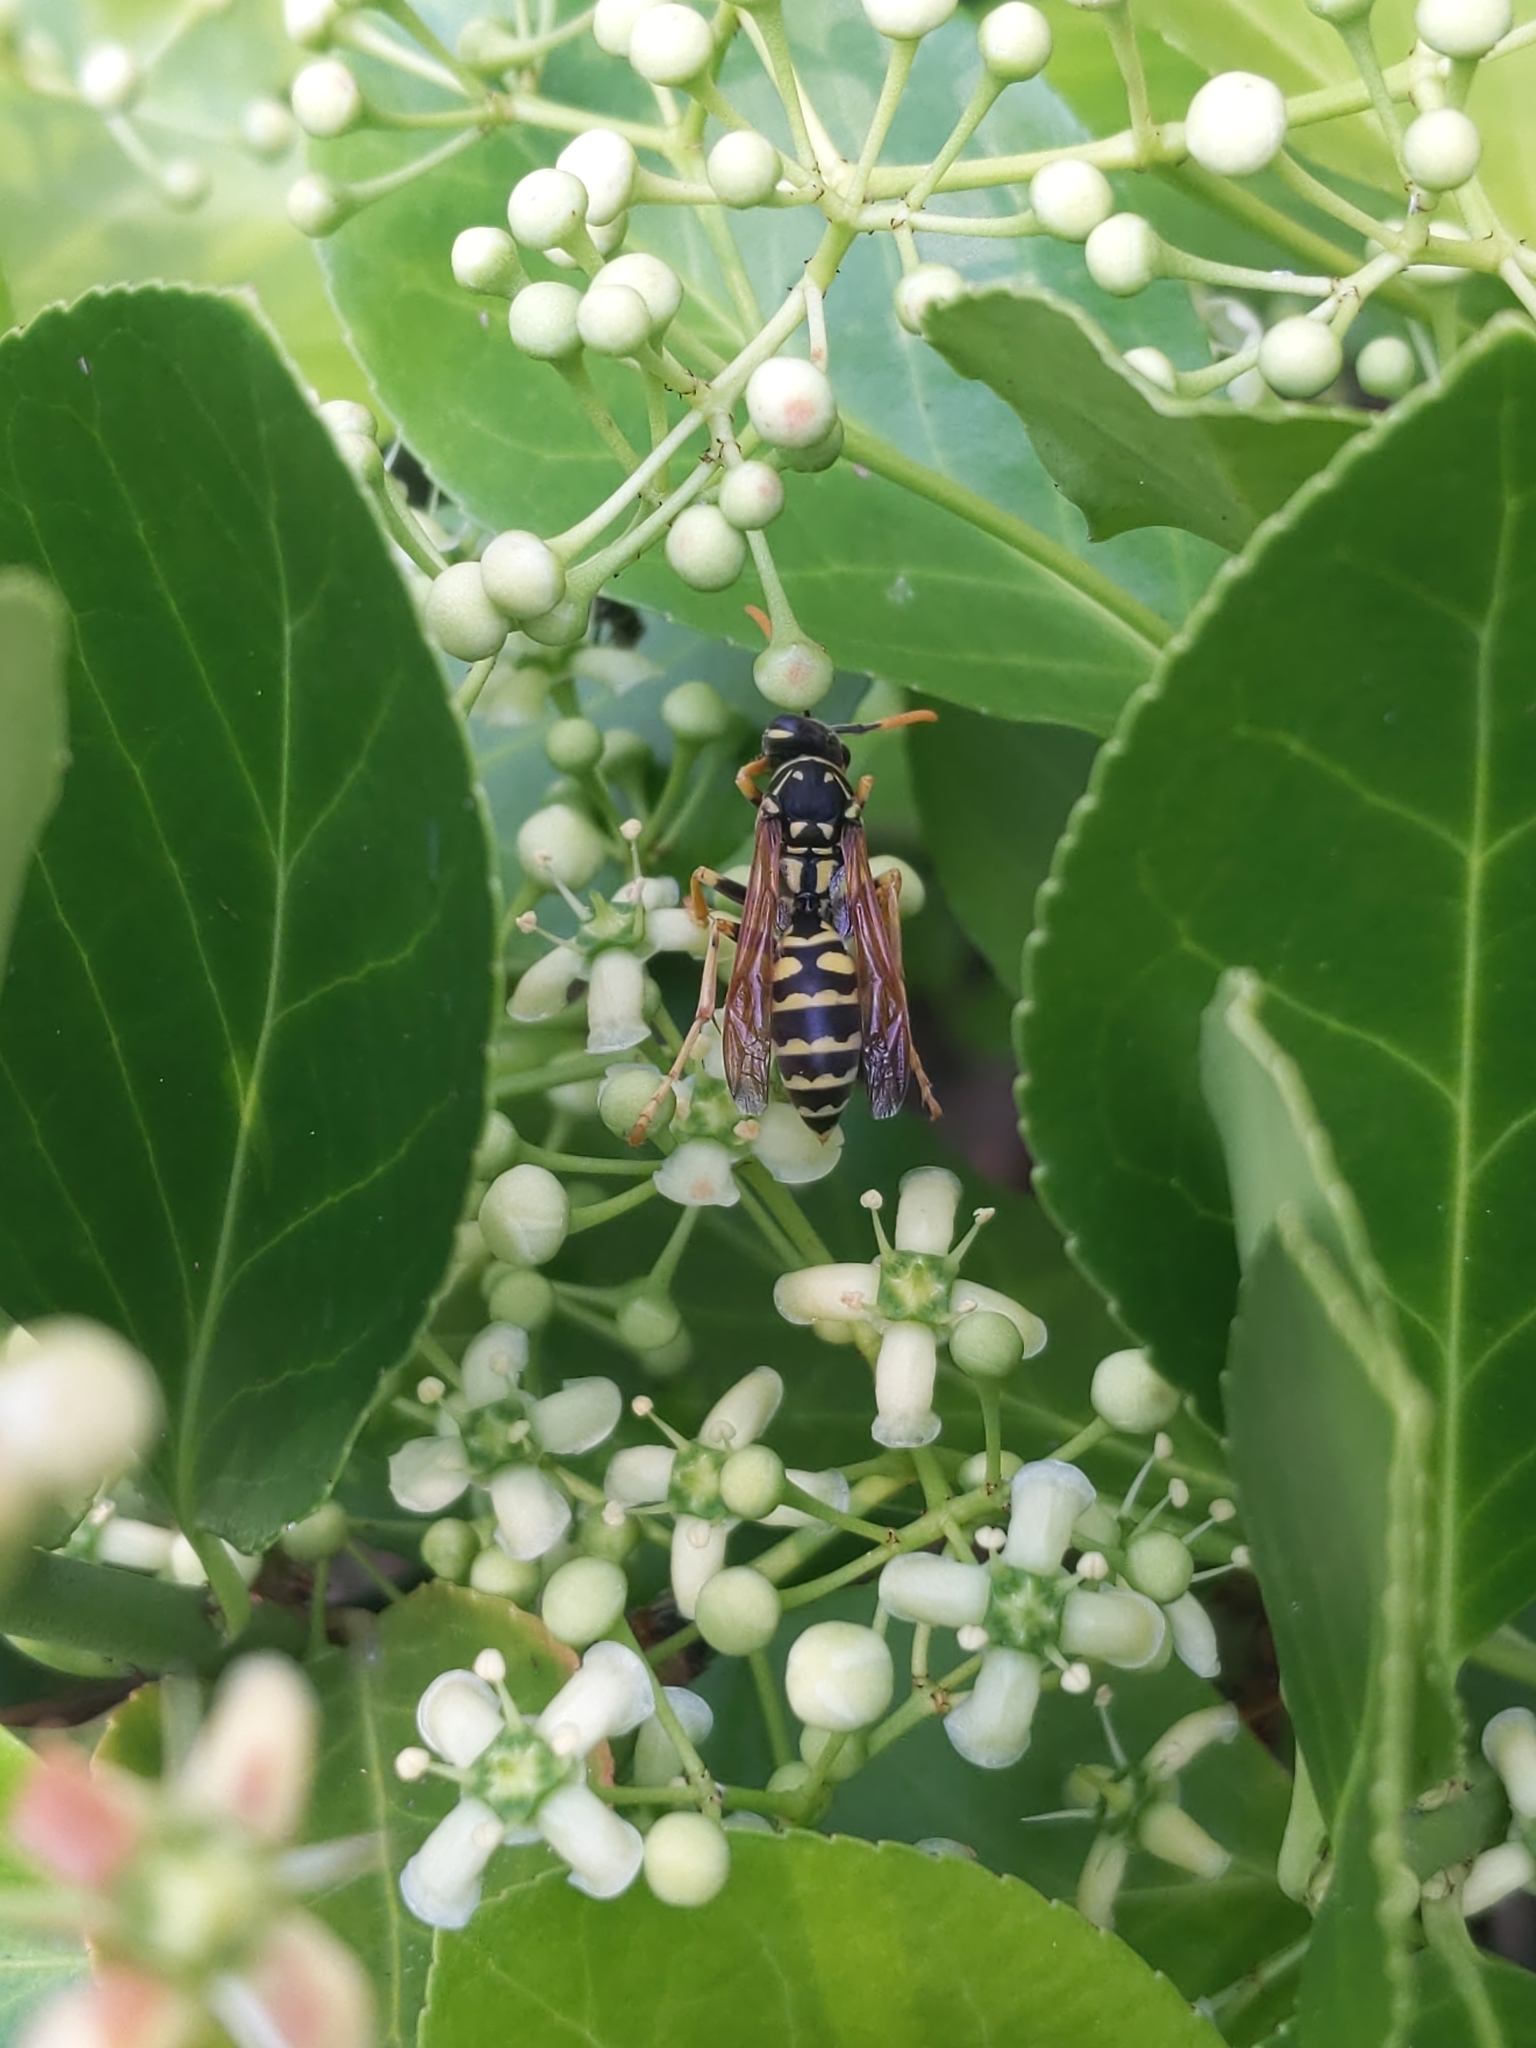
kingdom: Animalia
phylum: Arthropoda
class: Insecta
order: Hymenoptera
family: Eumenidae
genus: Polistes
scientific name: Polistes dominula
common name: Paper wasp
